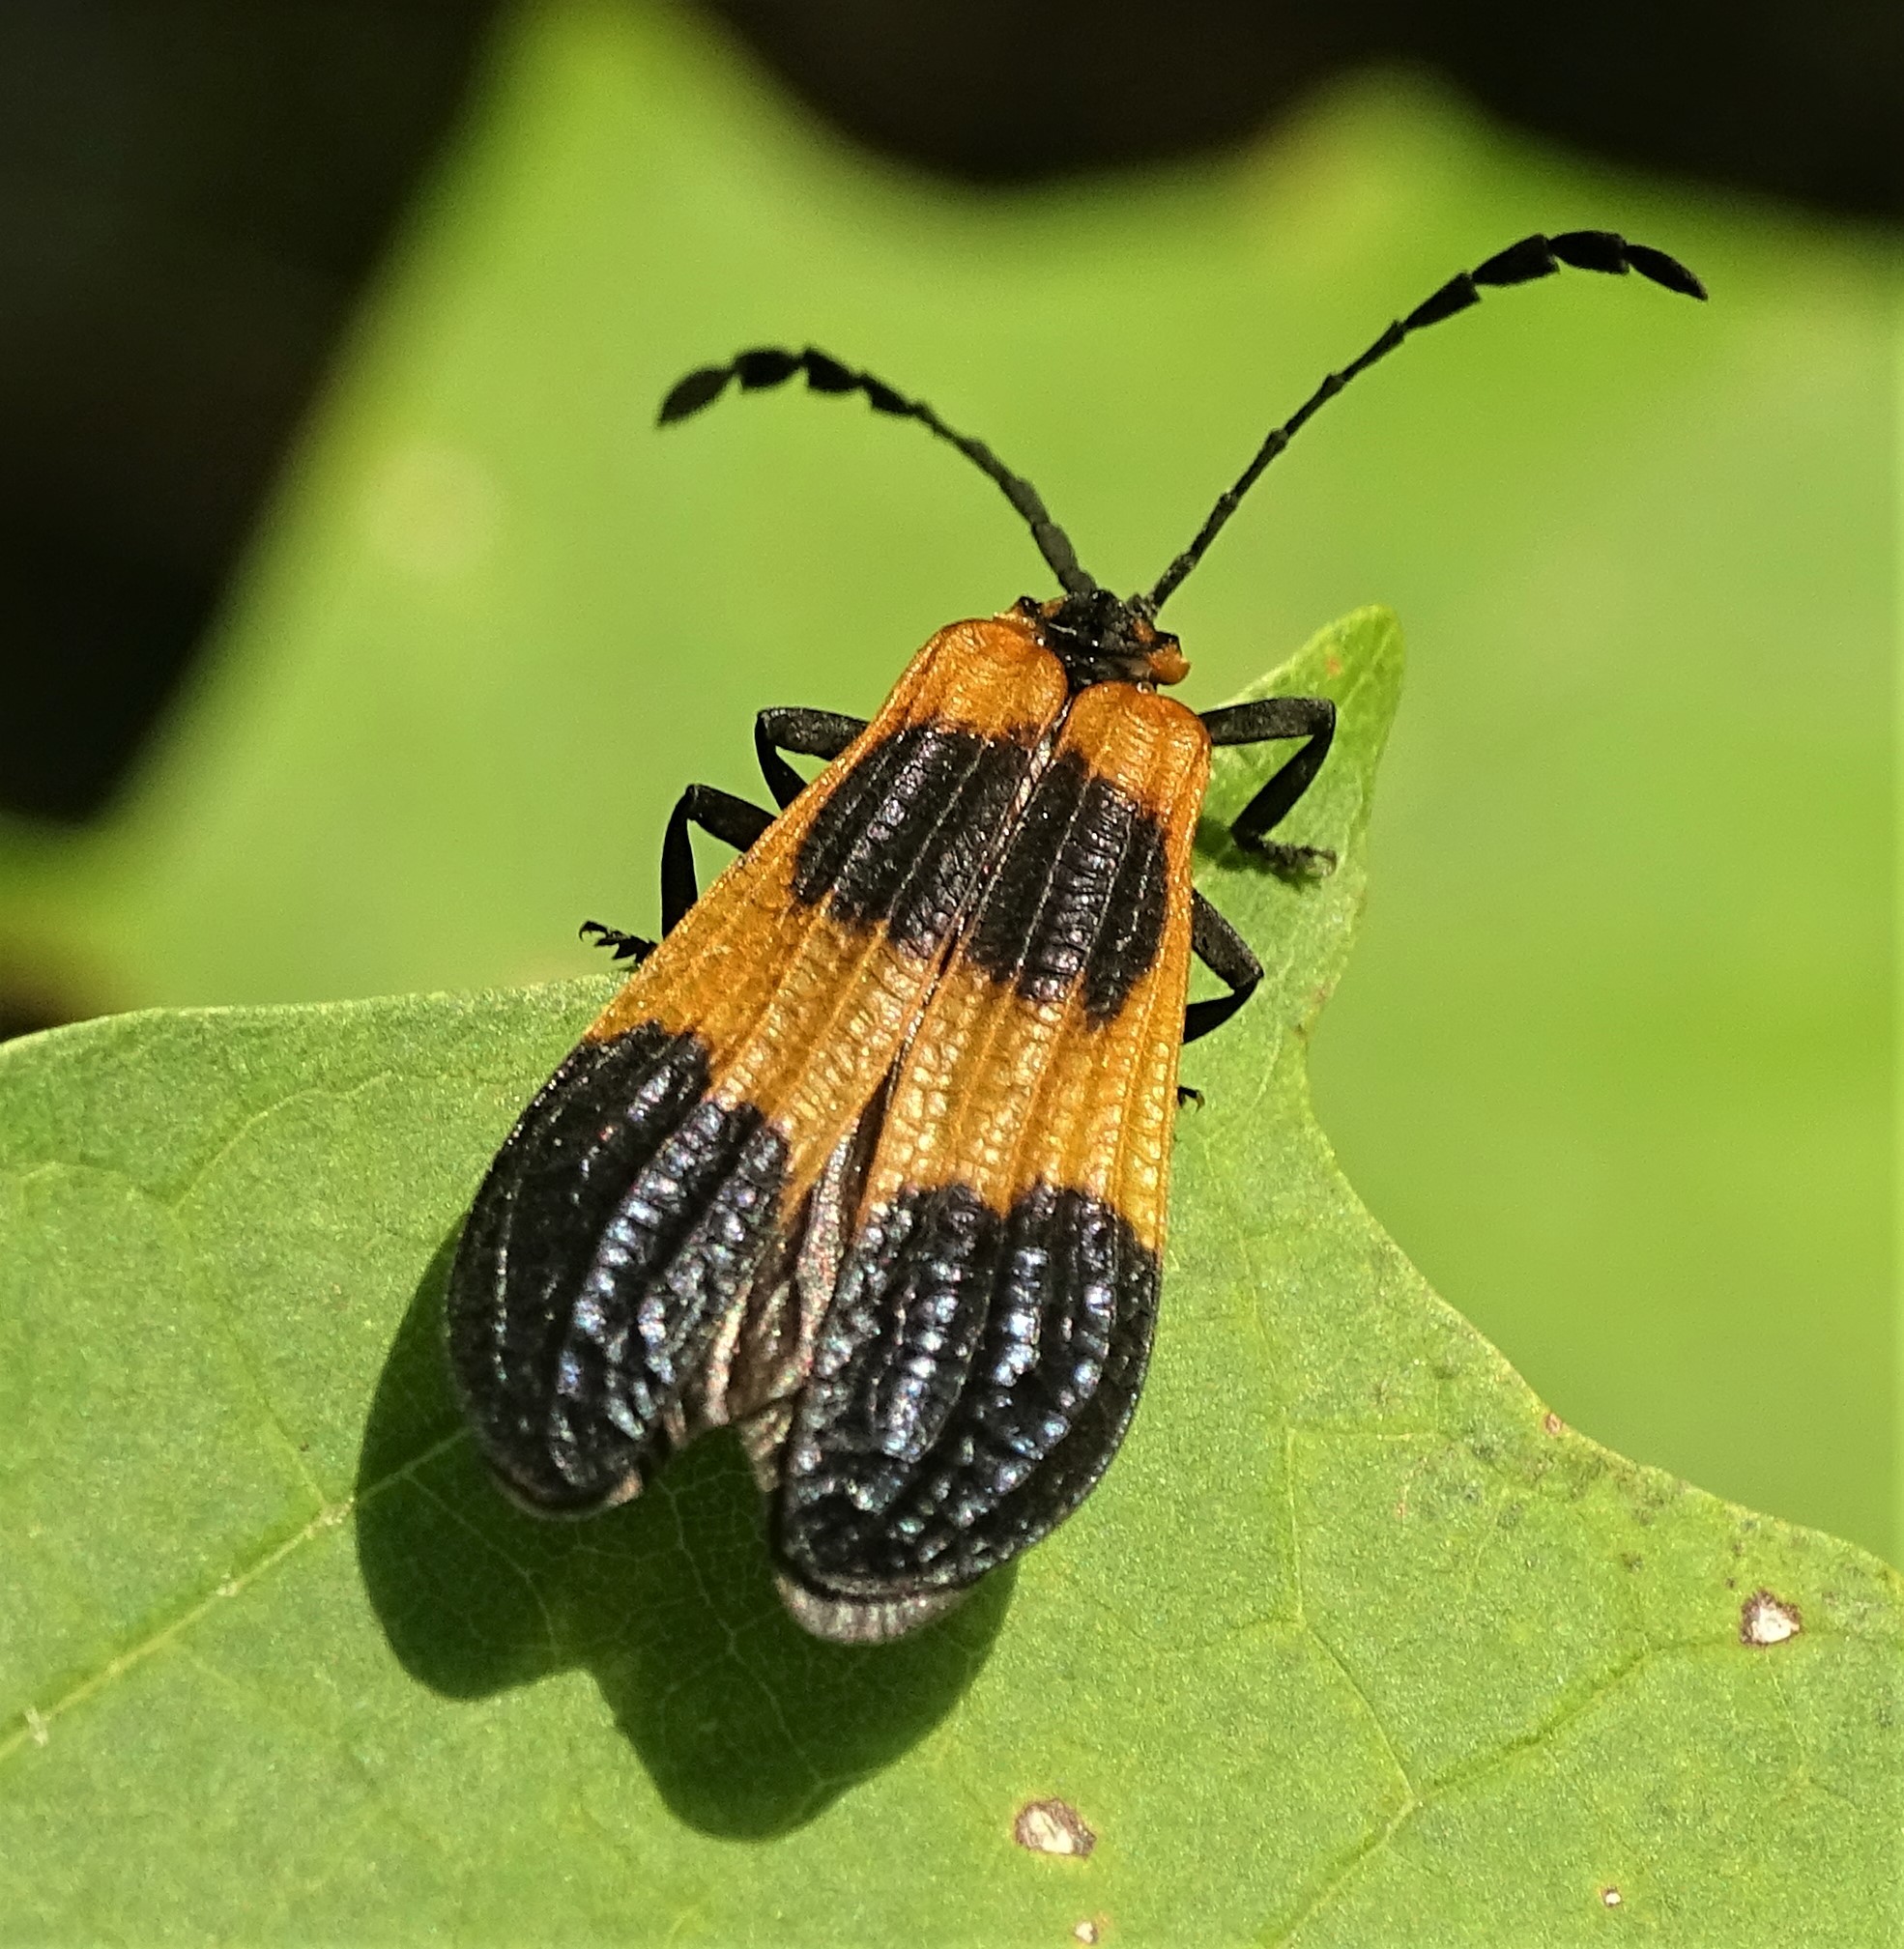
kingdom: Animalia
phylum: Arthropoda
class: Insecta
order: Coleoptera
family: Lycidae
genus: Calopteron
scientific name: Calopteron terminale
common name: End band net-winged beetle
